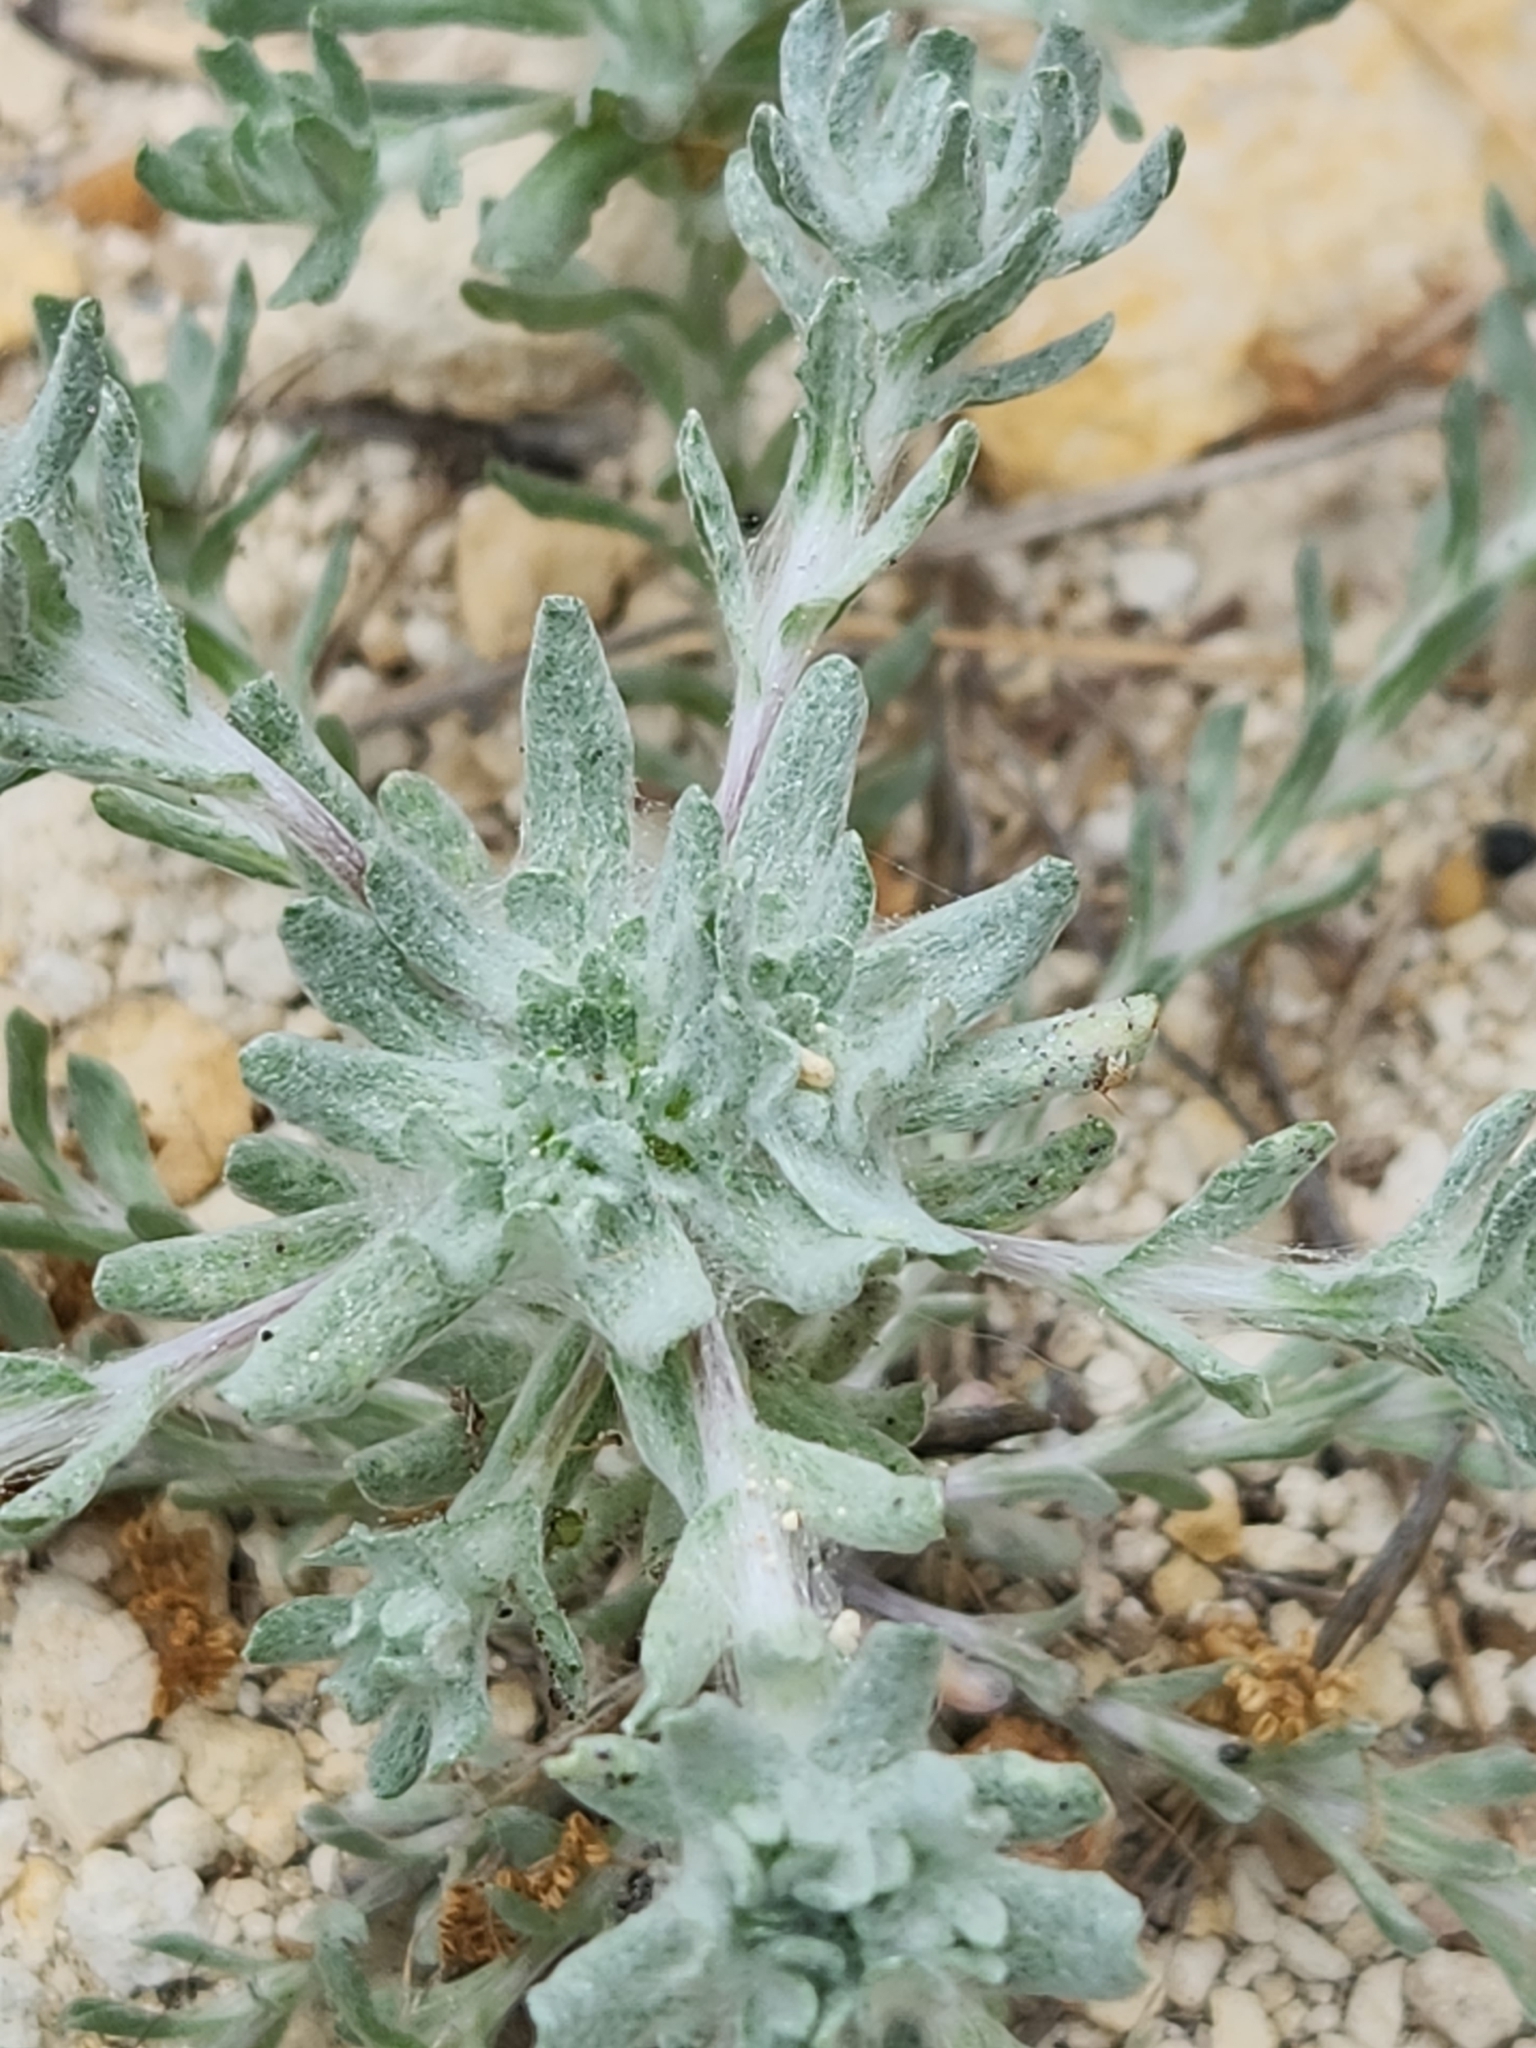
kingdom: Plantae
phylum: Tracheophyta
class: Magnoliopsida
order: Asterales
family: Asteraceae
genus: Diaperia
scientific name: Diaperia prolifera
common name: Big-head rabbit-tobacco
